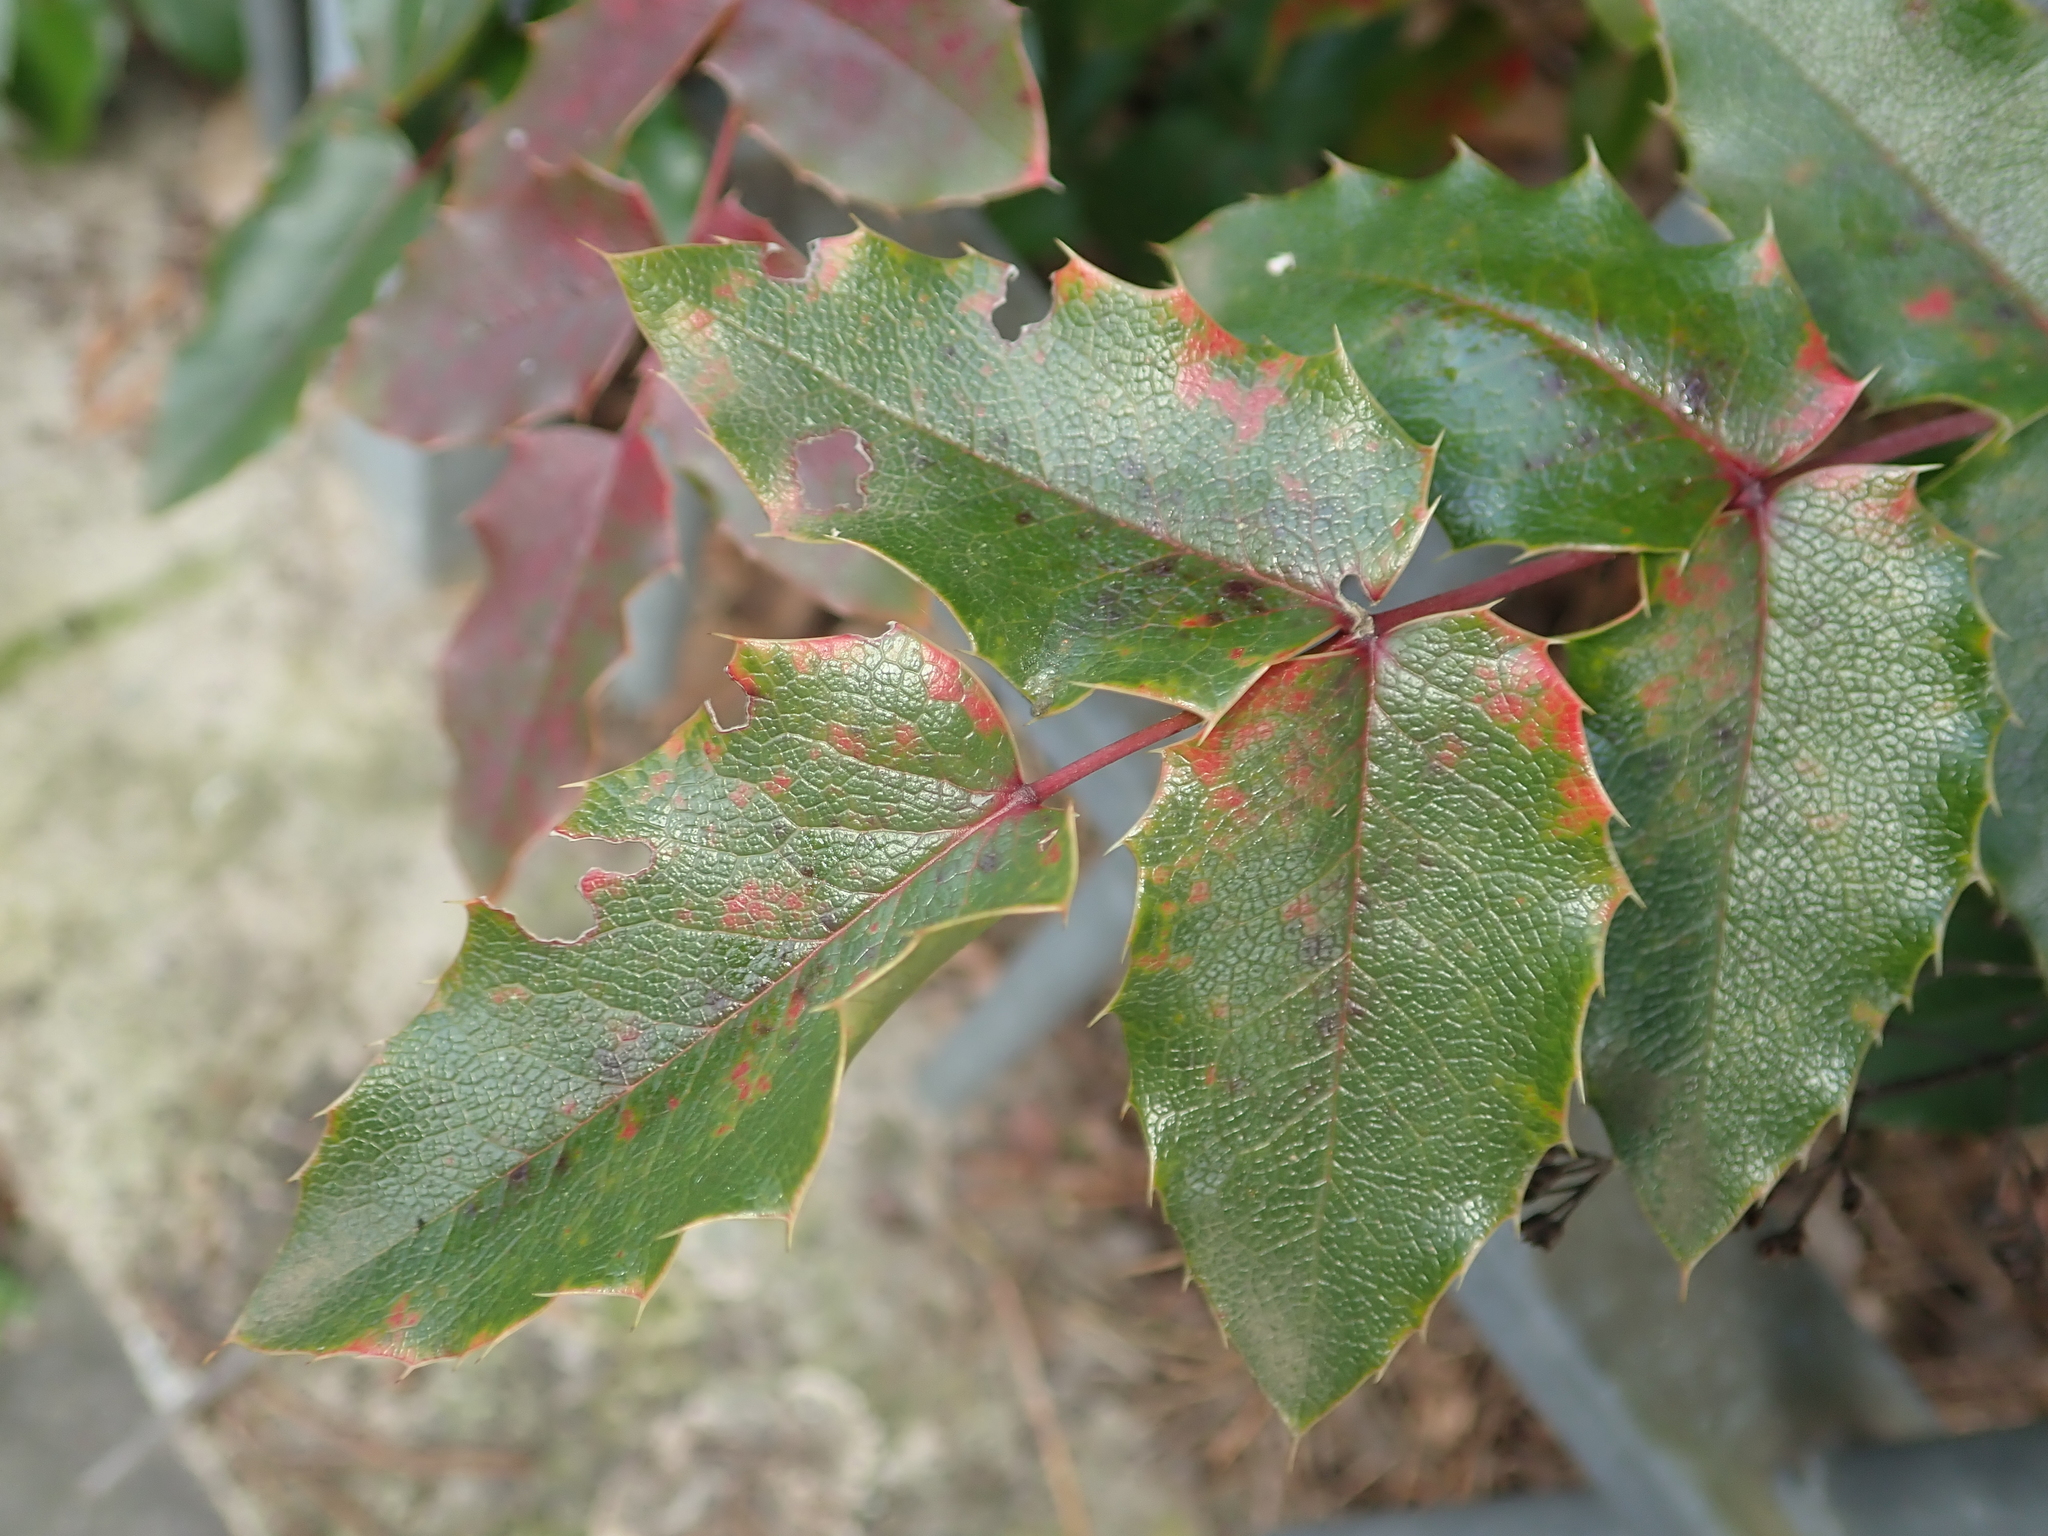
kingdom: Plantae
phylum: Tracheophyta
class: Magnoliopsida
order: Ranunculales
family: Berberidaceae
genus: Mahonia
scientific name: Mahonia aquifolium
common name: Oregon-grape
